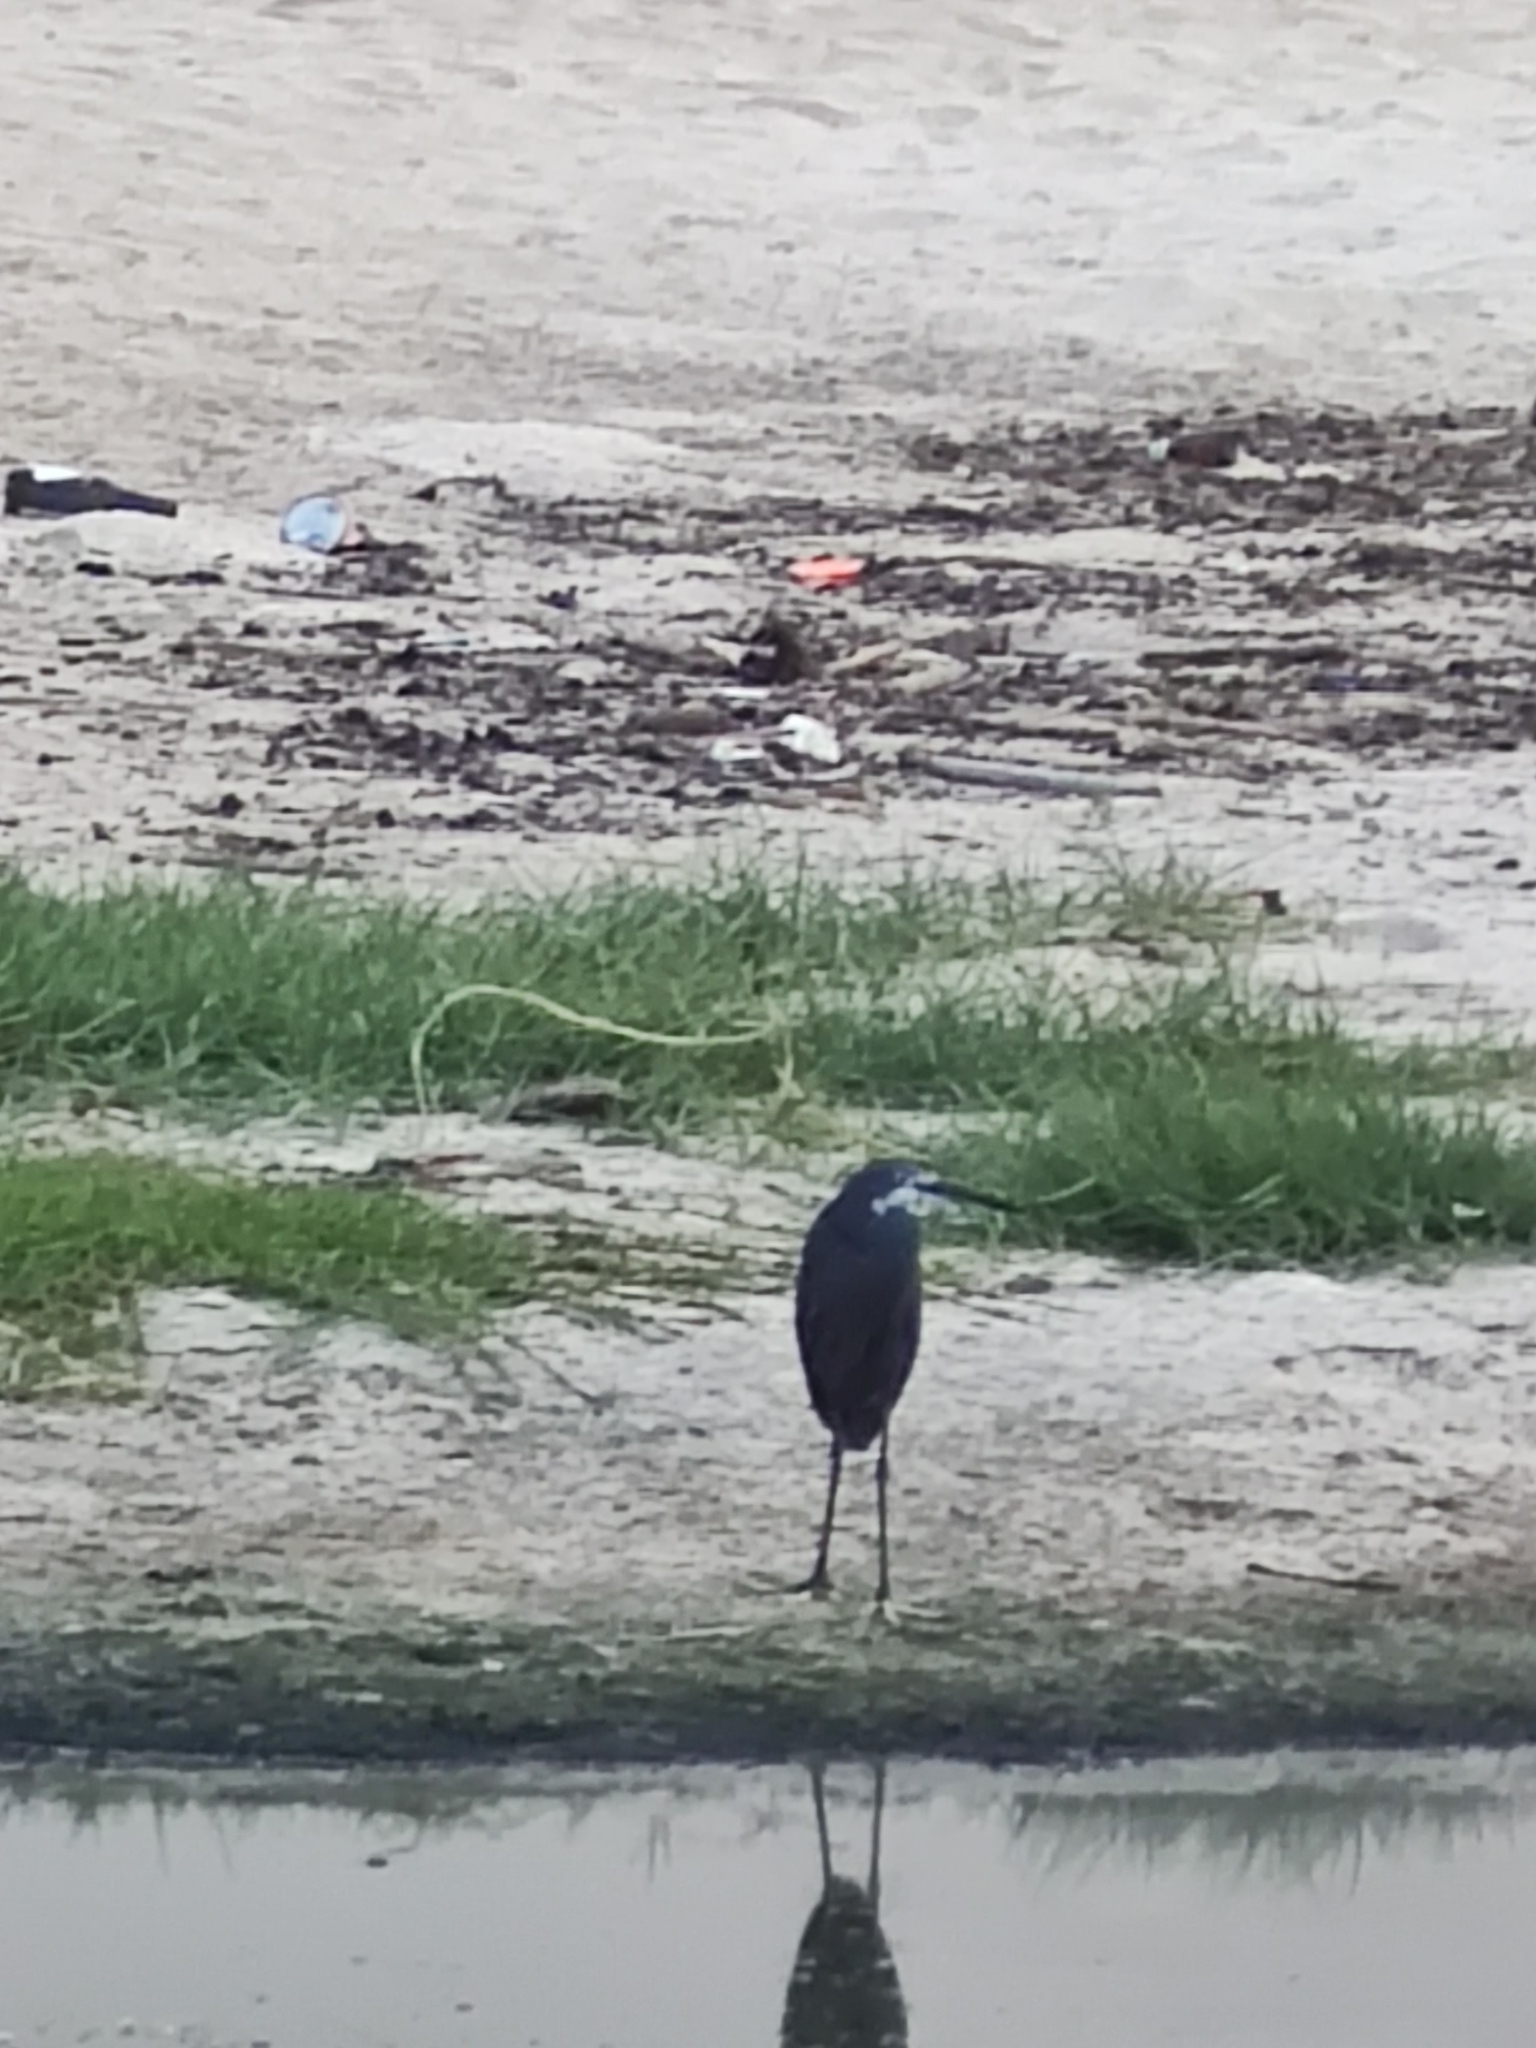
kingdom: Animalia
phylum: Chordata
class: Aves
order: Pelecaniformes
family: Ardeidae
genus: Egretta
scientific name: Egretta dimorpha
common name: Dimorphic egret
